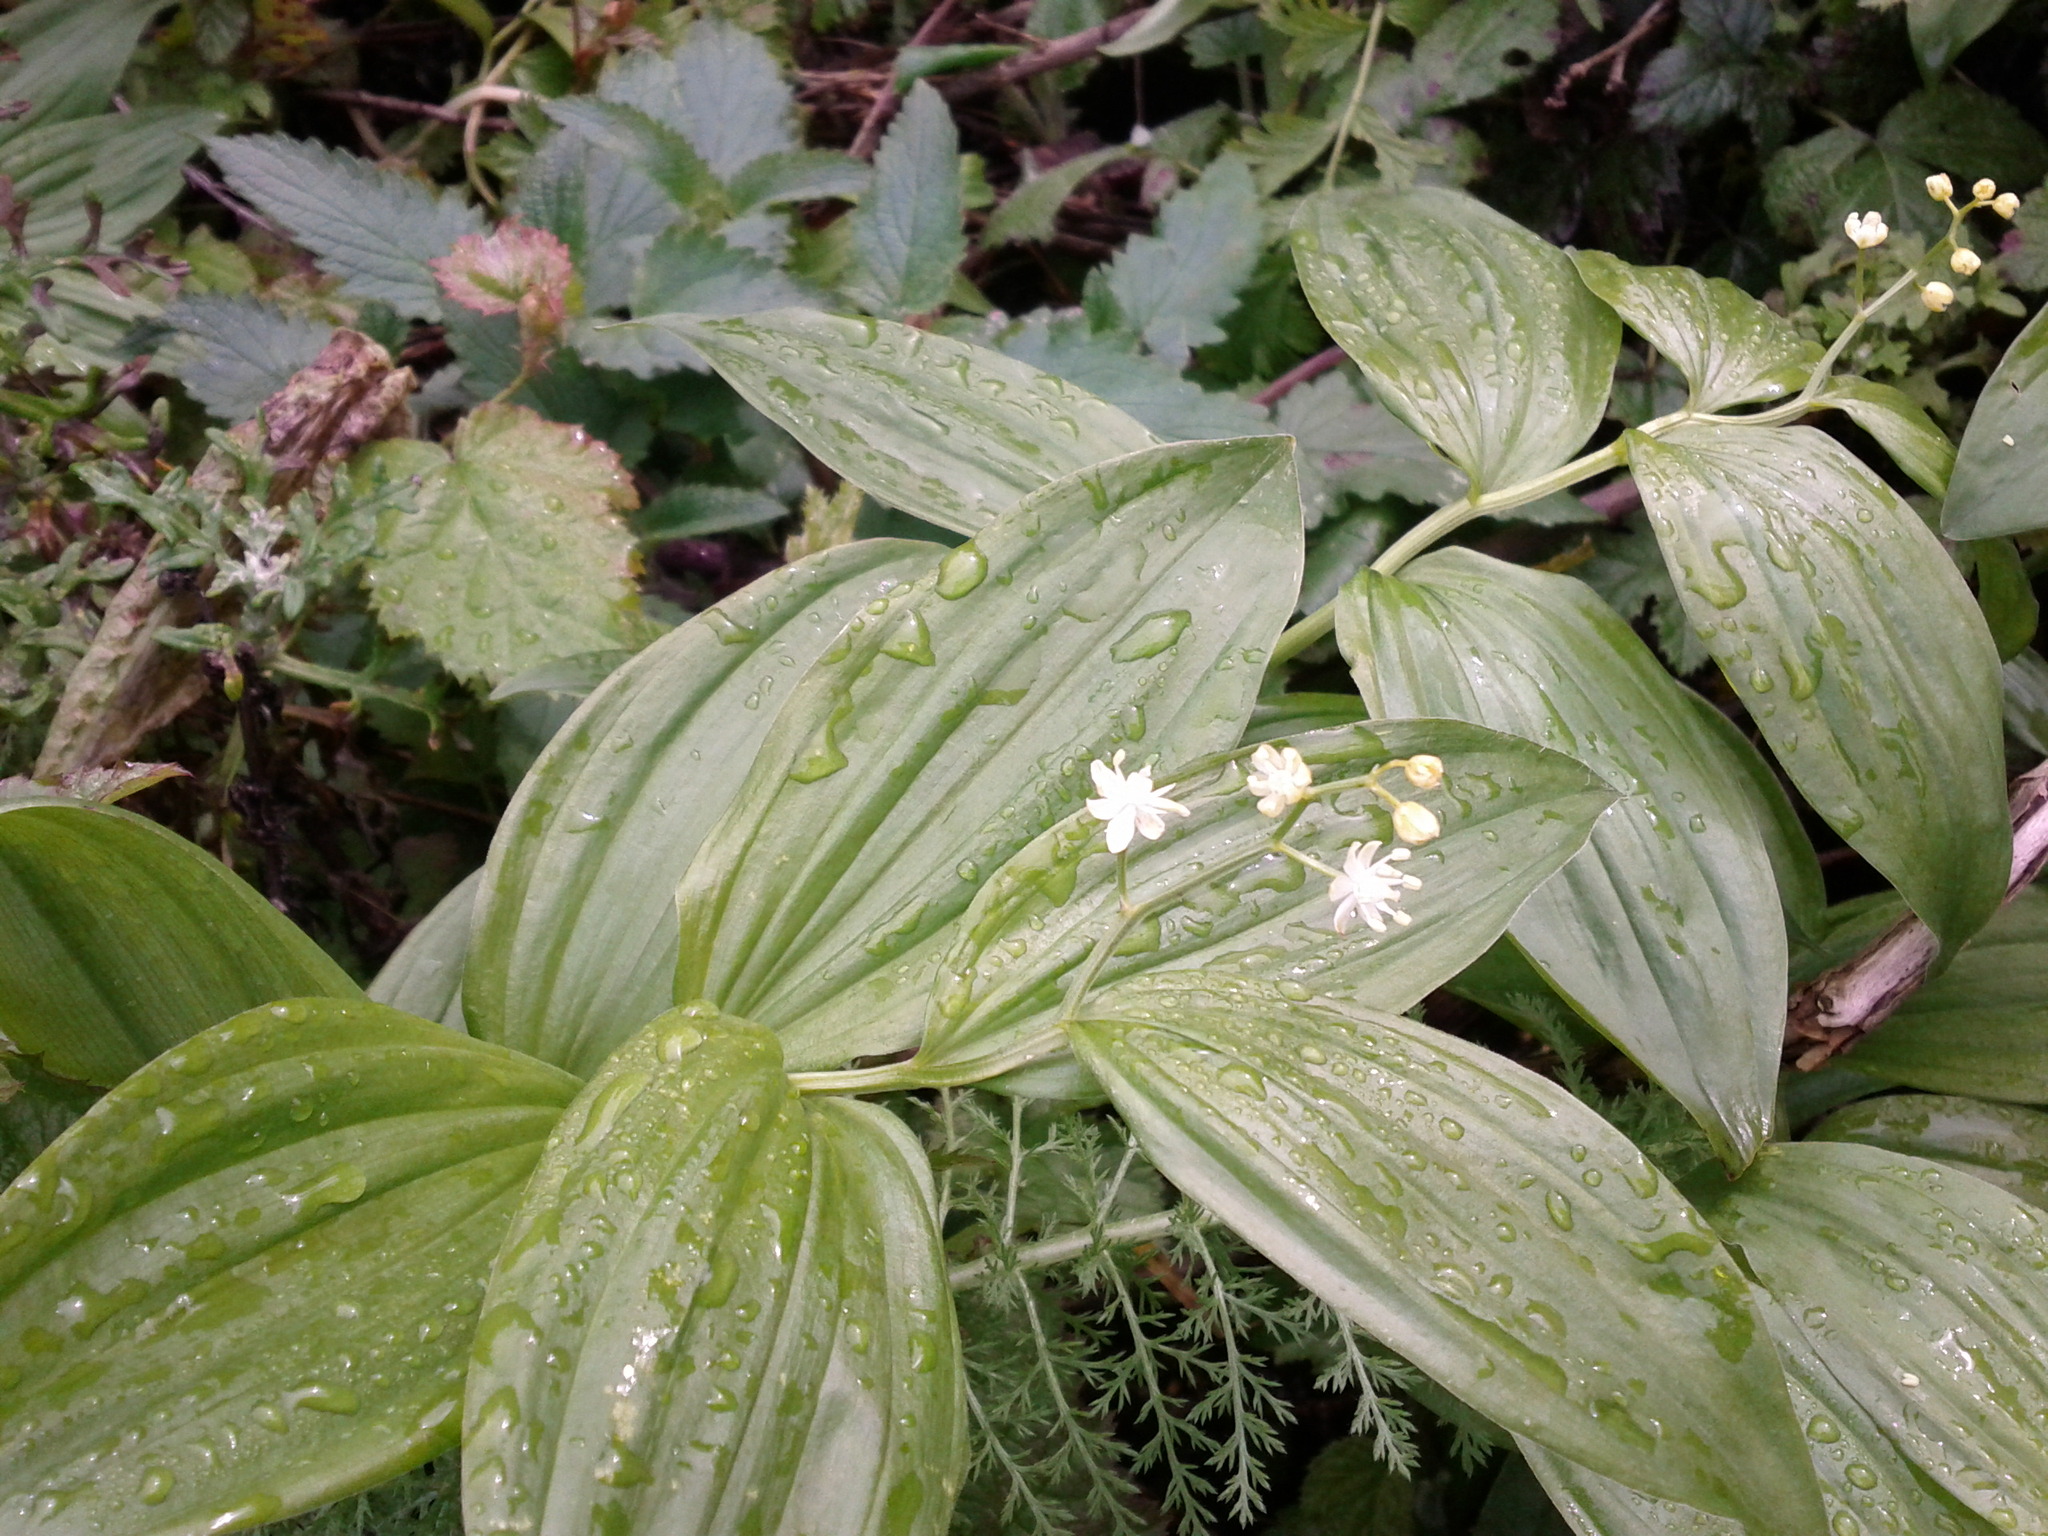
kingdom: Plantae
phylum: Tracheophyta
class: Liliopsida
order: Asparagales
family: Asparagaceae
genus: Maianthemum
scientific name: Maianthemum stellatum
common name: Little false solomon's seal
